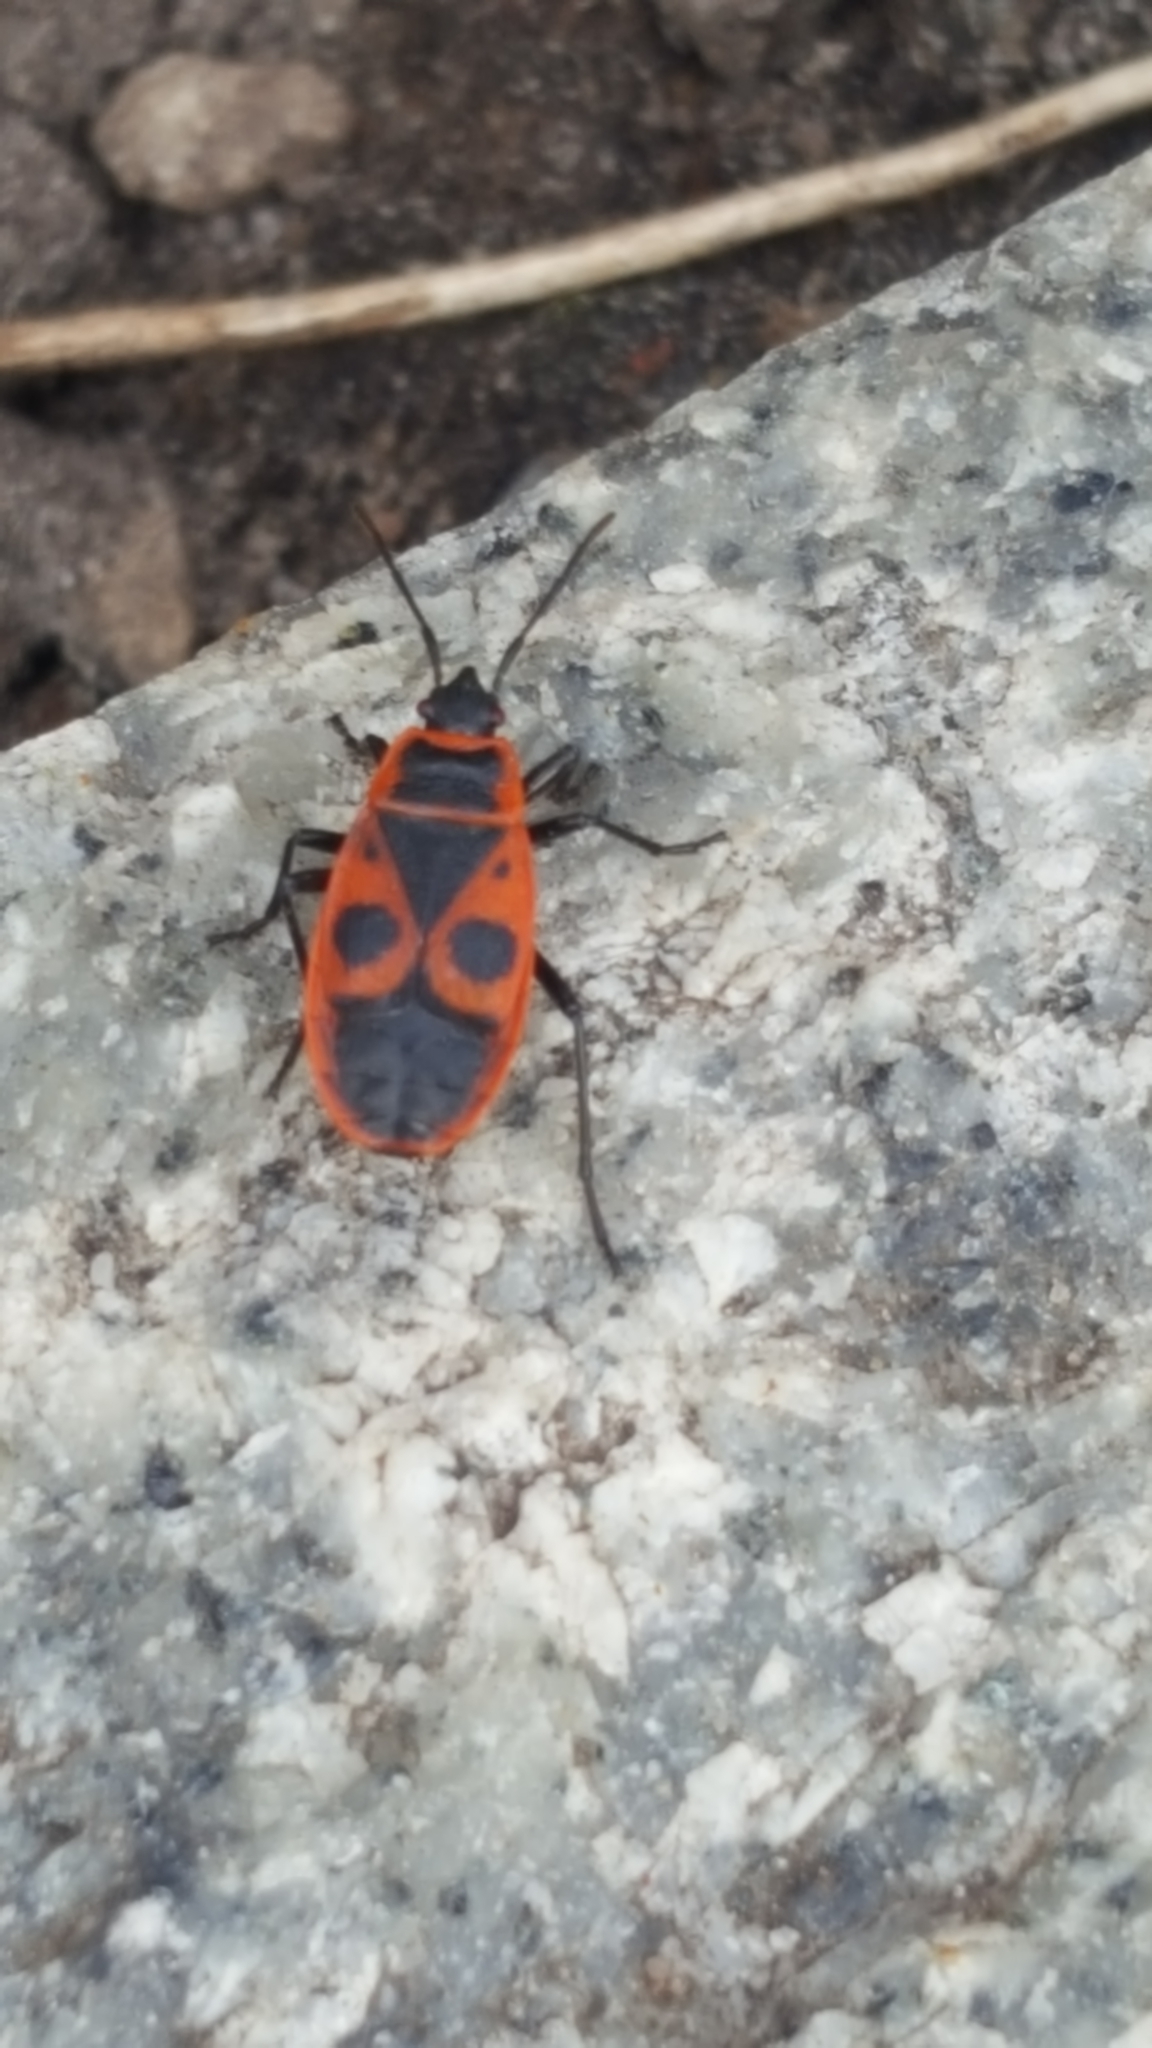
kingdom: Animalia
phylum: Arthropoda
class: Insecta
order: Hemiptera
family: Pyrrhocoridae
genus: Pyrrhocoris
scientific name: Pyrrhocoris apterus
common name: Firebug
